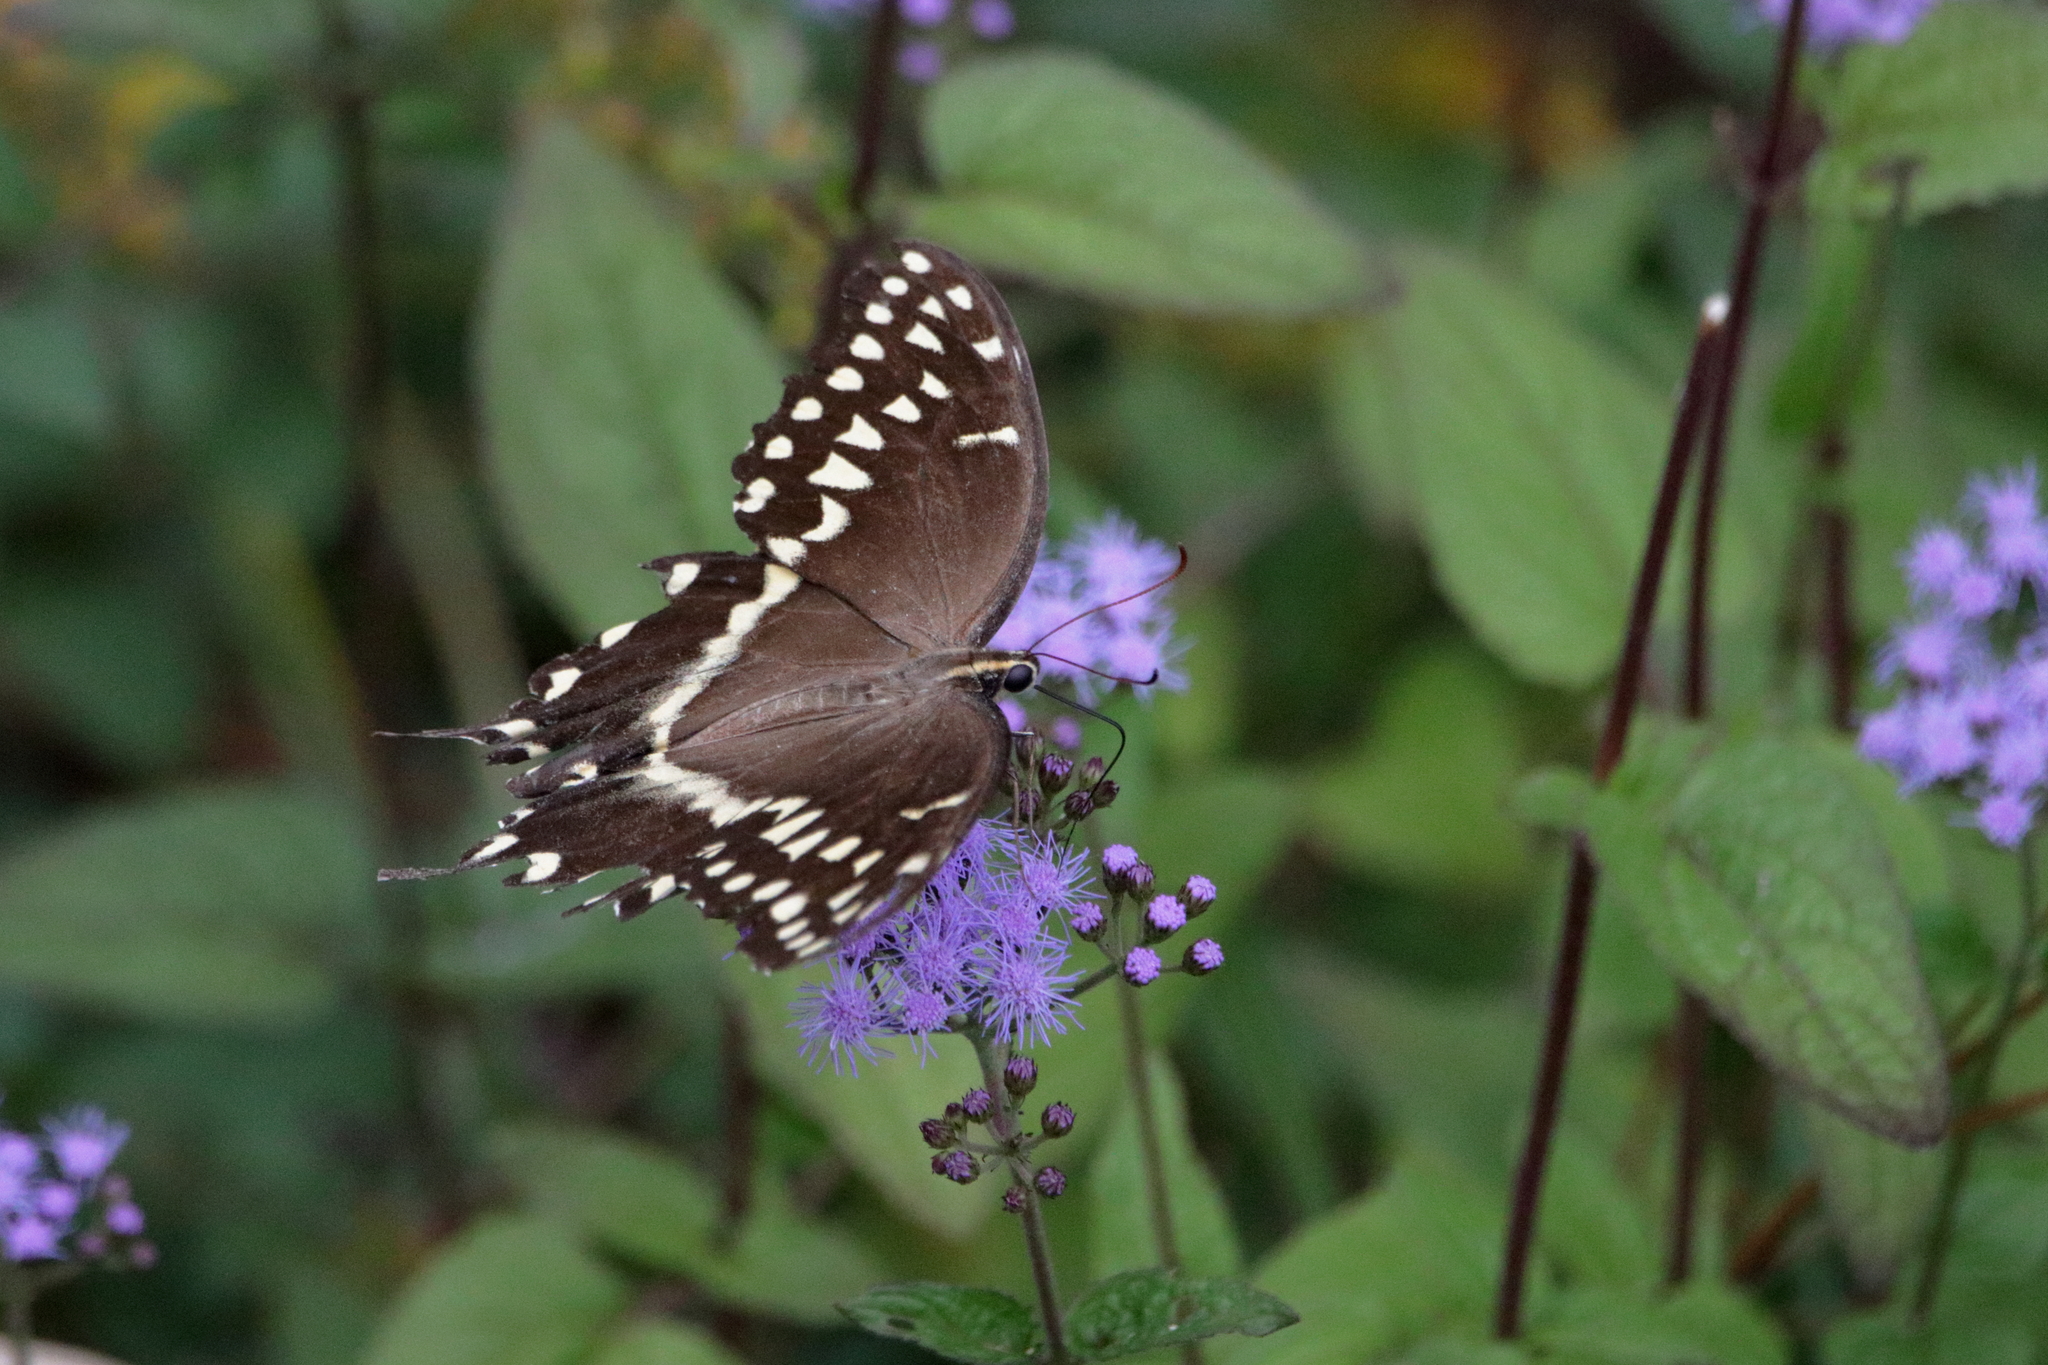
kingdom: Animalia
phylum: Arthropoda
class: Insecta
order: Lepidoptera
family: Papilionidae
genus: Papilio
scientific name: Papilio palamedes
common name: Palamedes swallowtail
